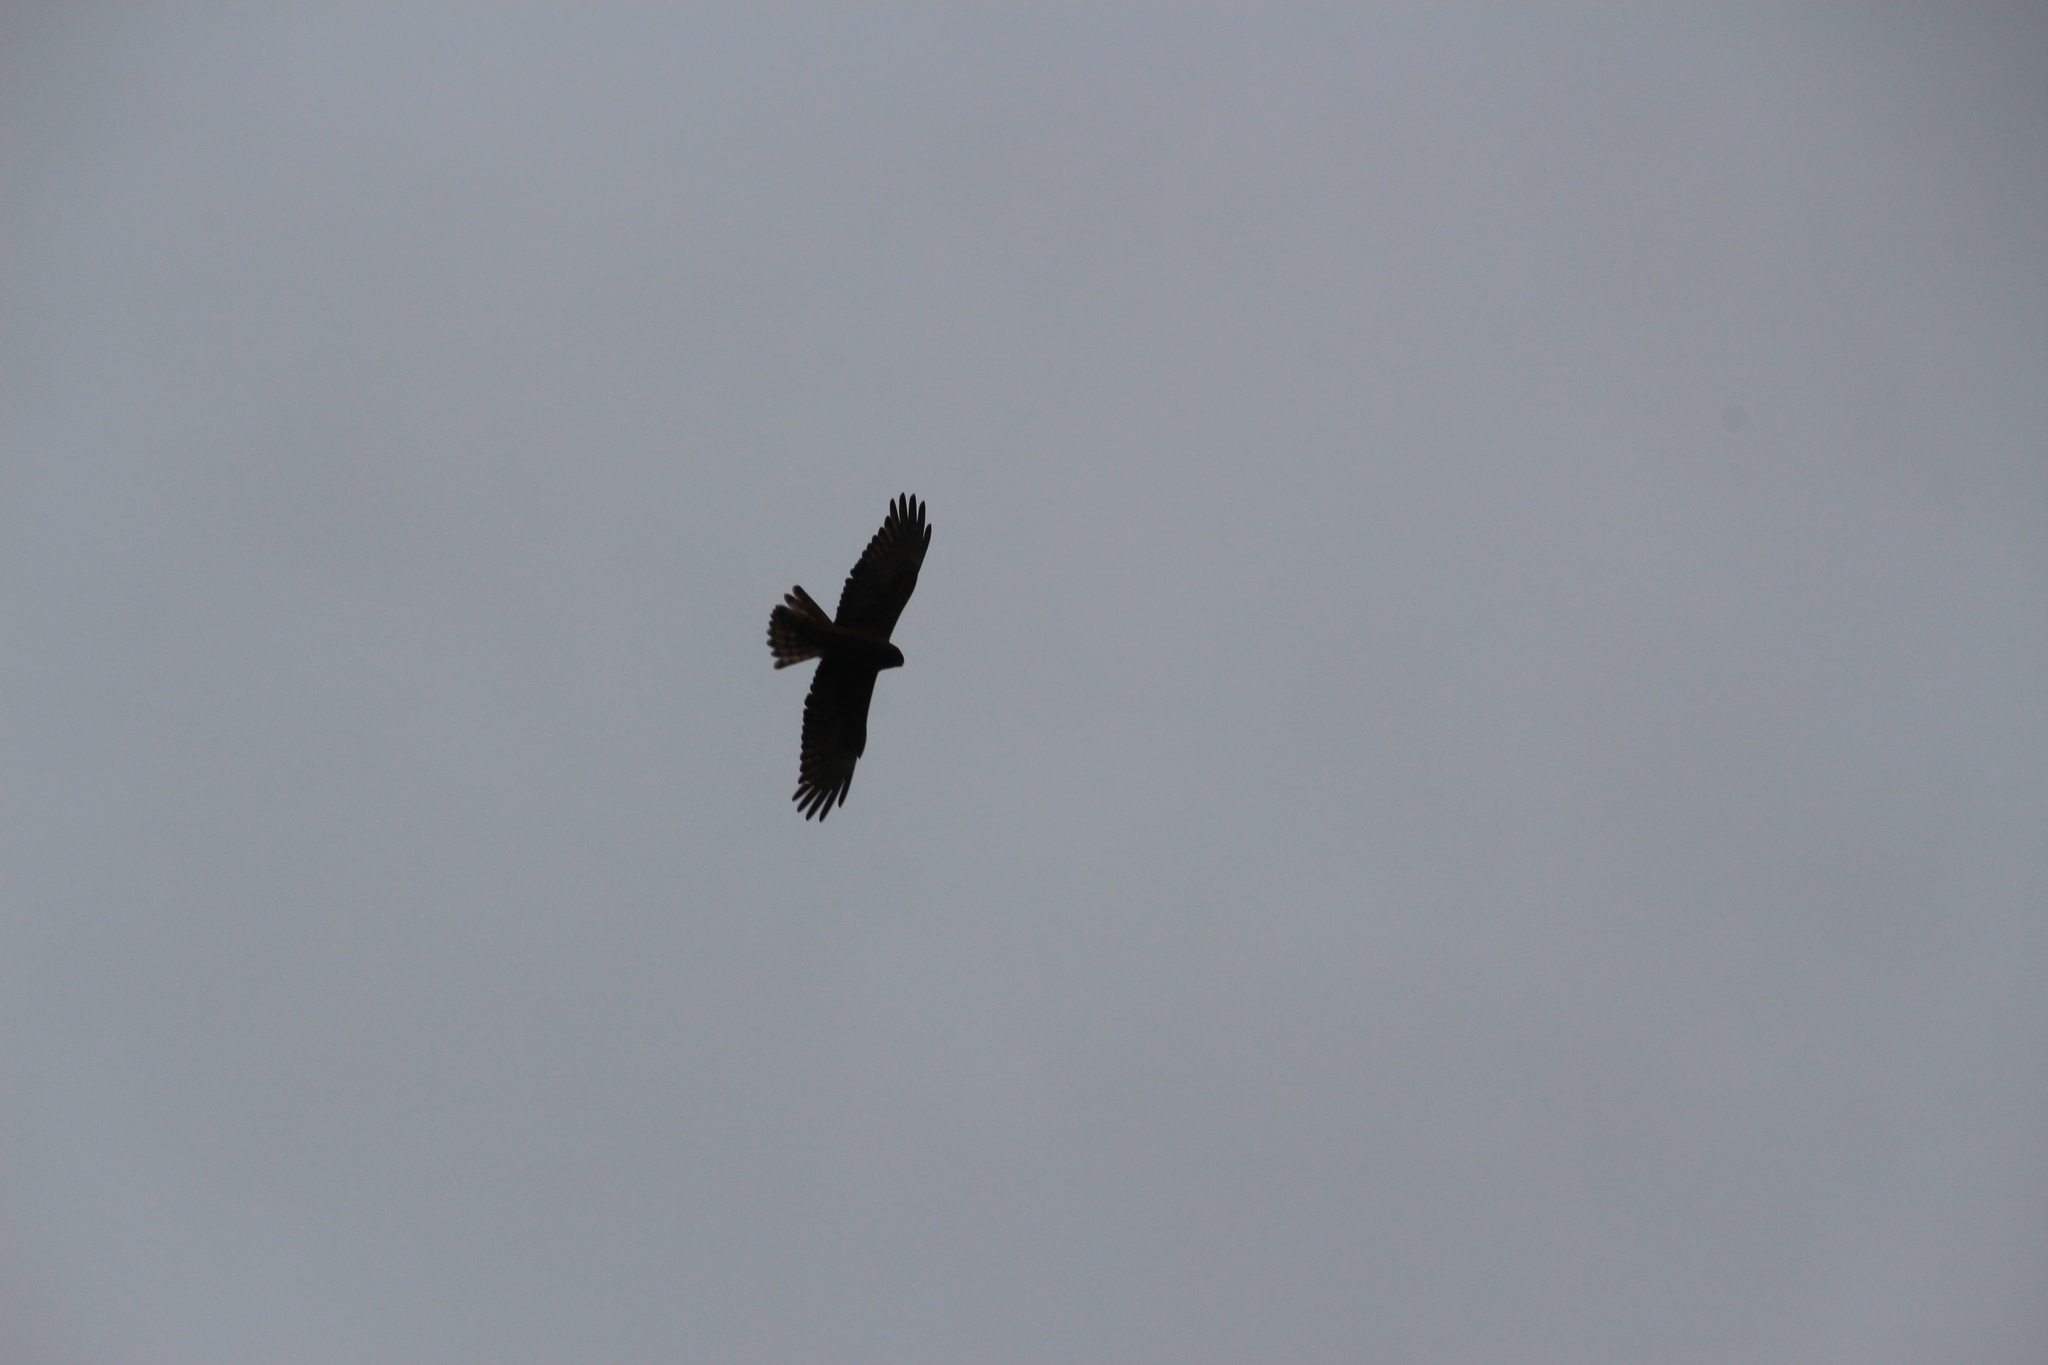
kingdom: Animalia
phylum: Chordata
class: Aves
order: Accipitriformes
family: Accipitridae
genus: Circus
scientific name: Circus approximans
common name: Swamp harrier
